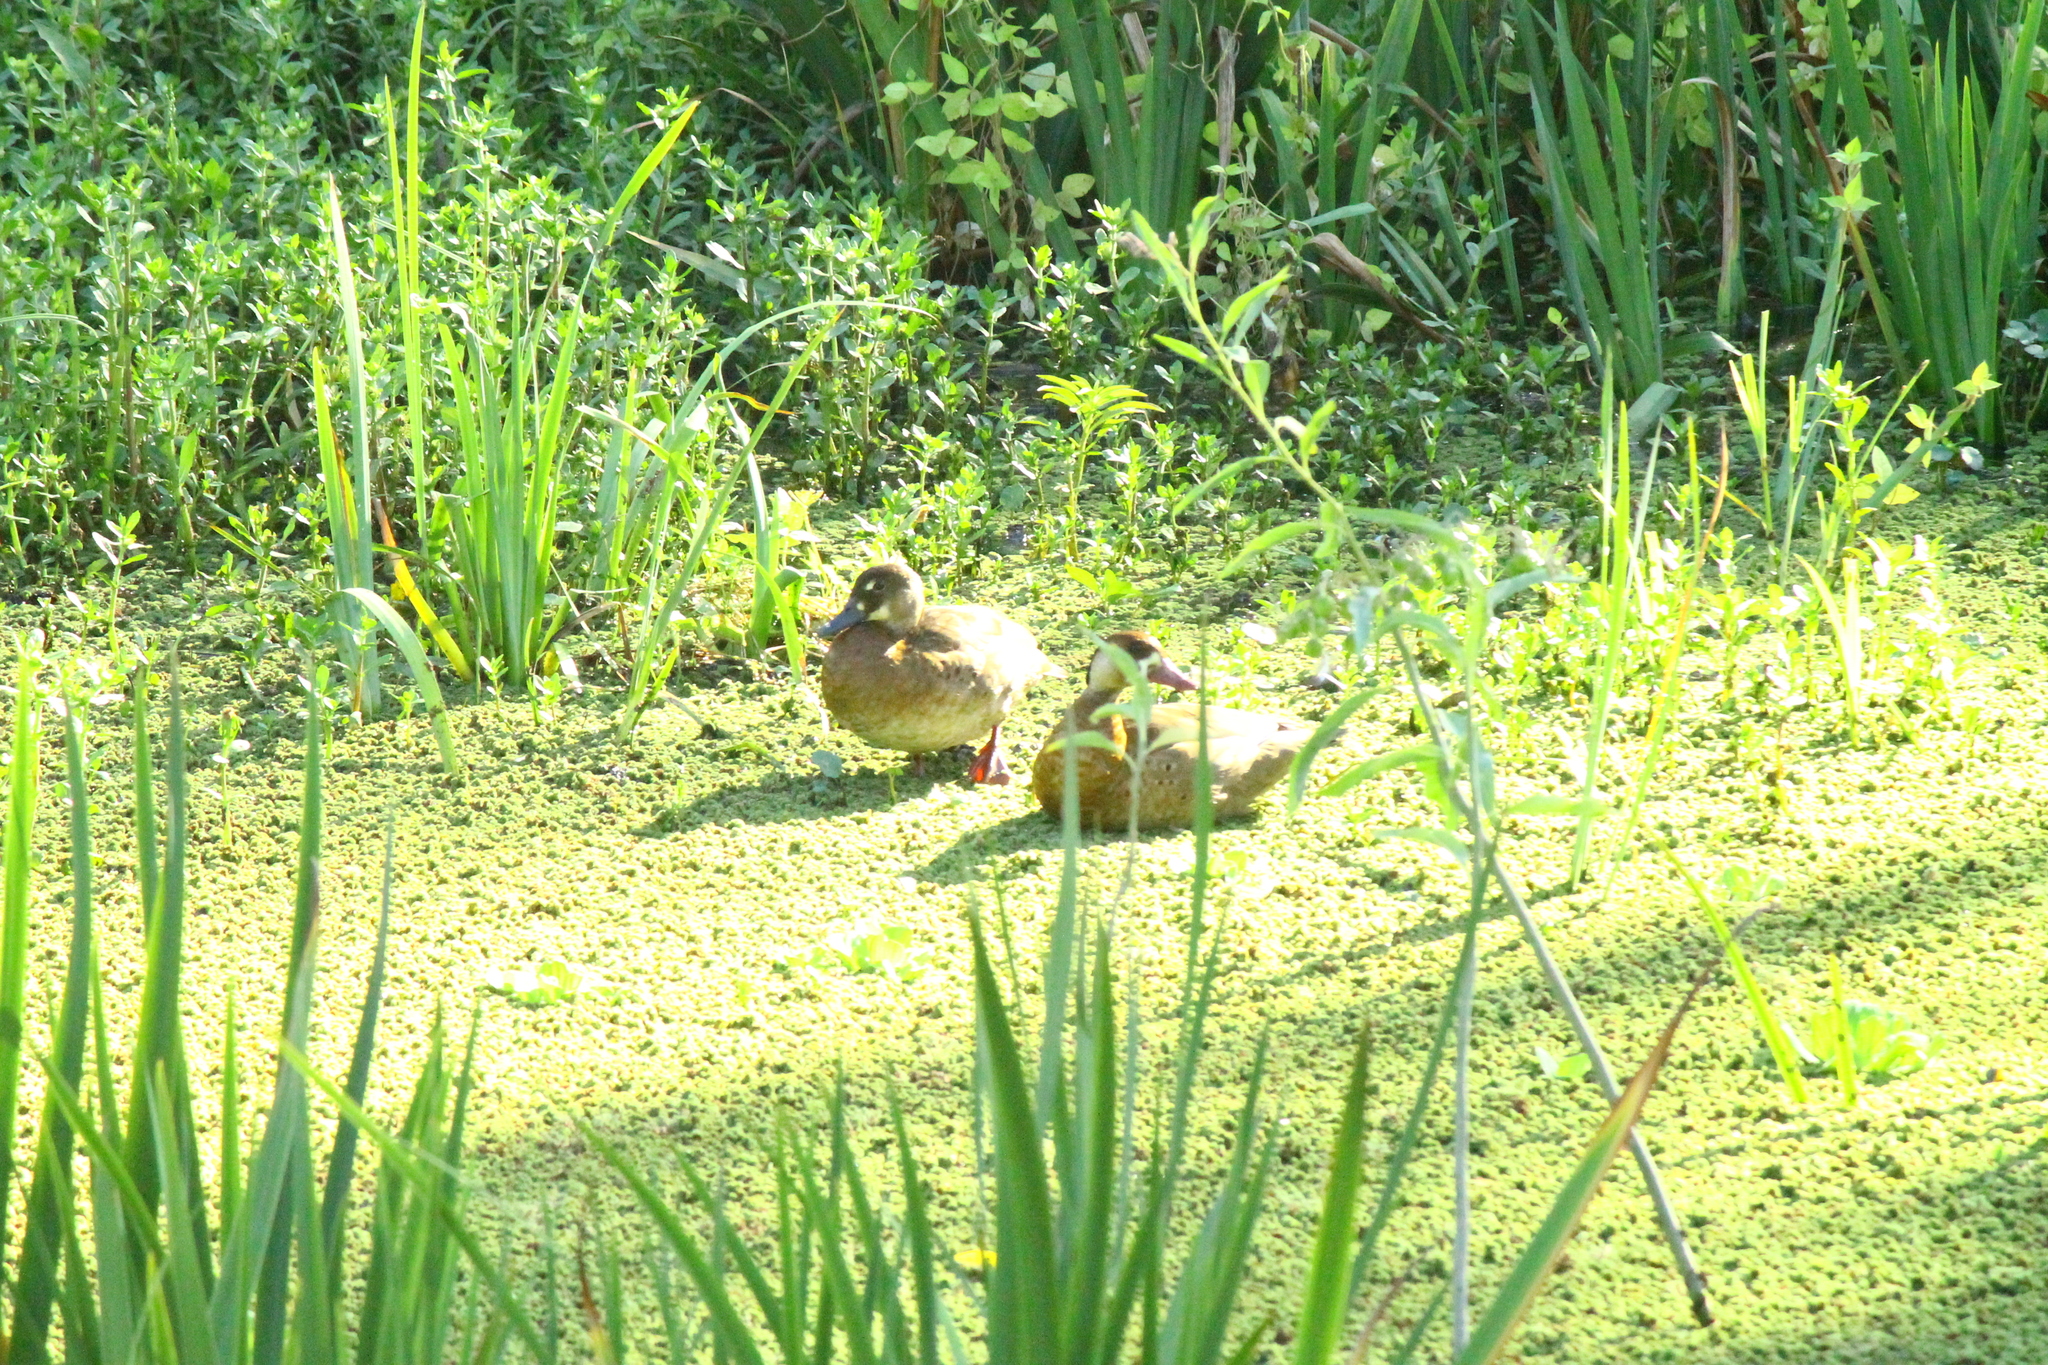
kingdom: Animalia
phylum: Chordata
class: Aves
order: Anseriformes
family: Anatidae
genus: Amazonetta
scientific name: Amazonetta brasiliensis
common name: Brazilian teal
